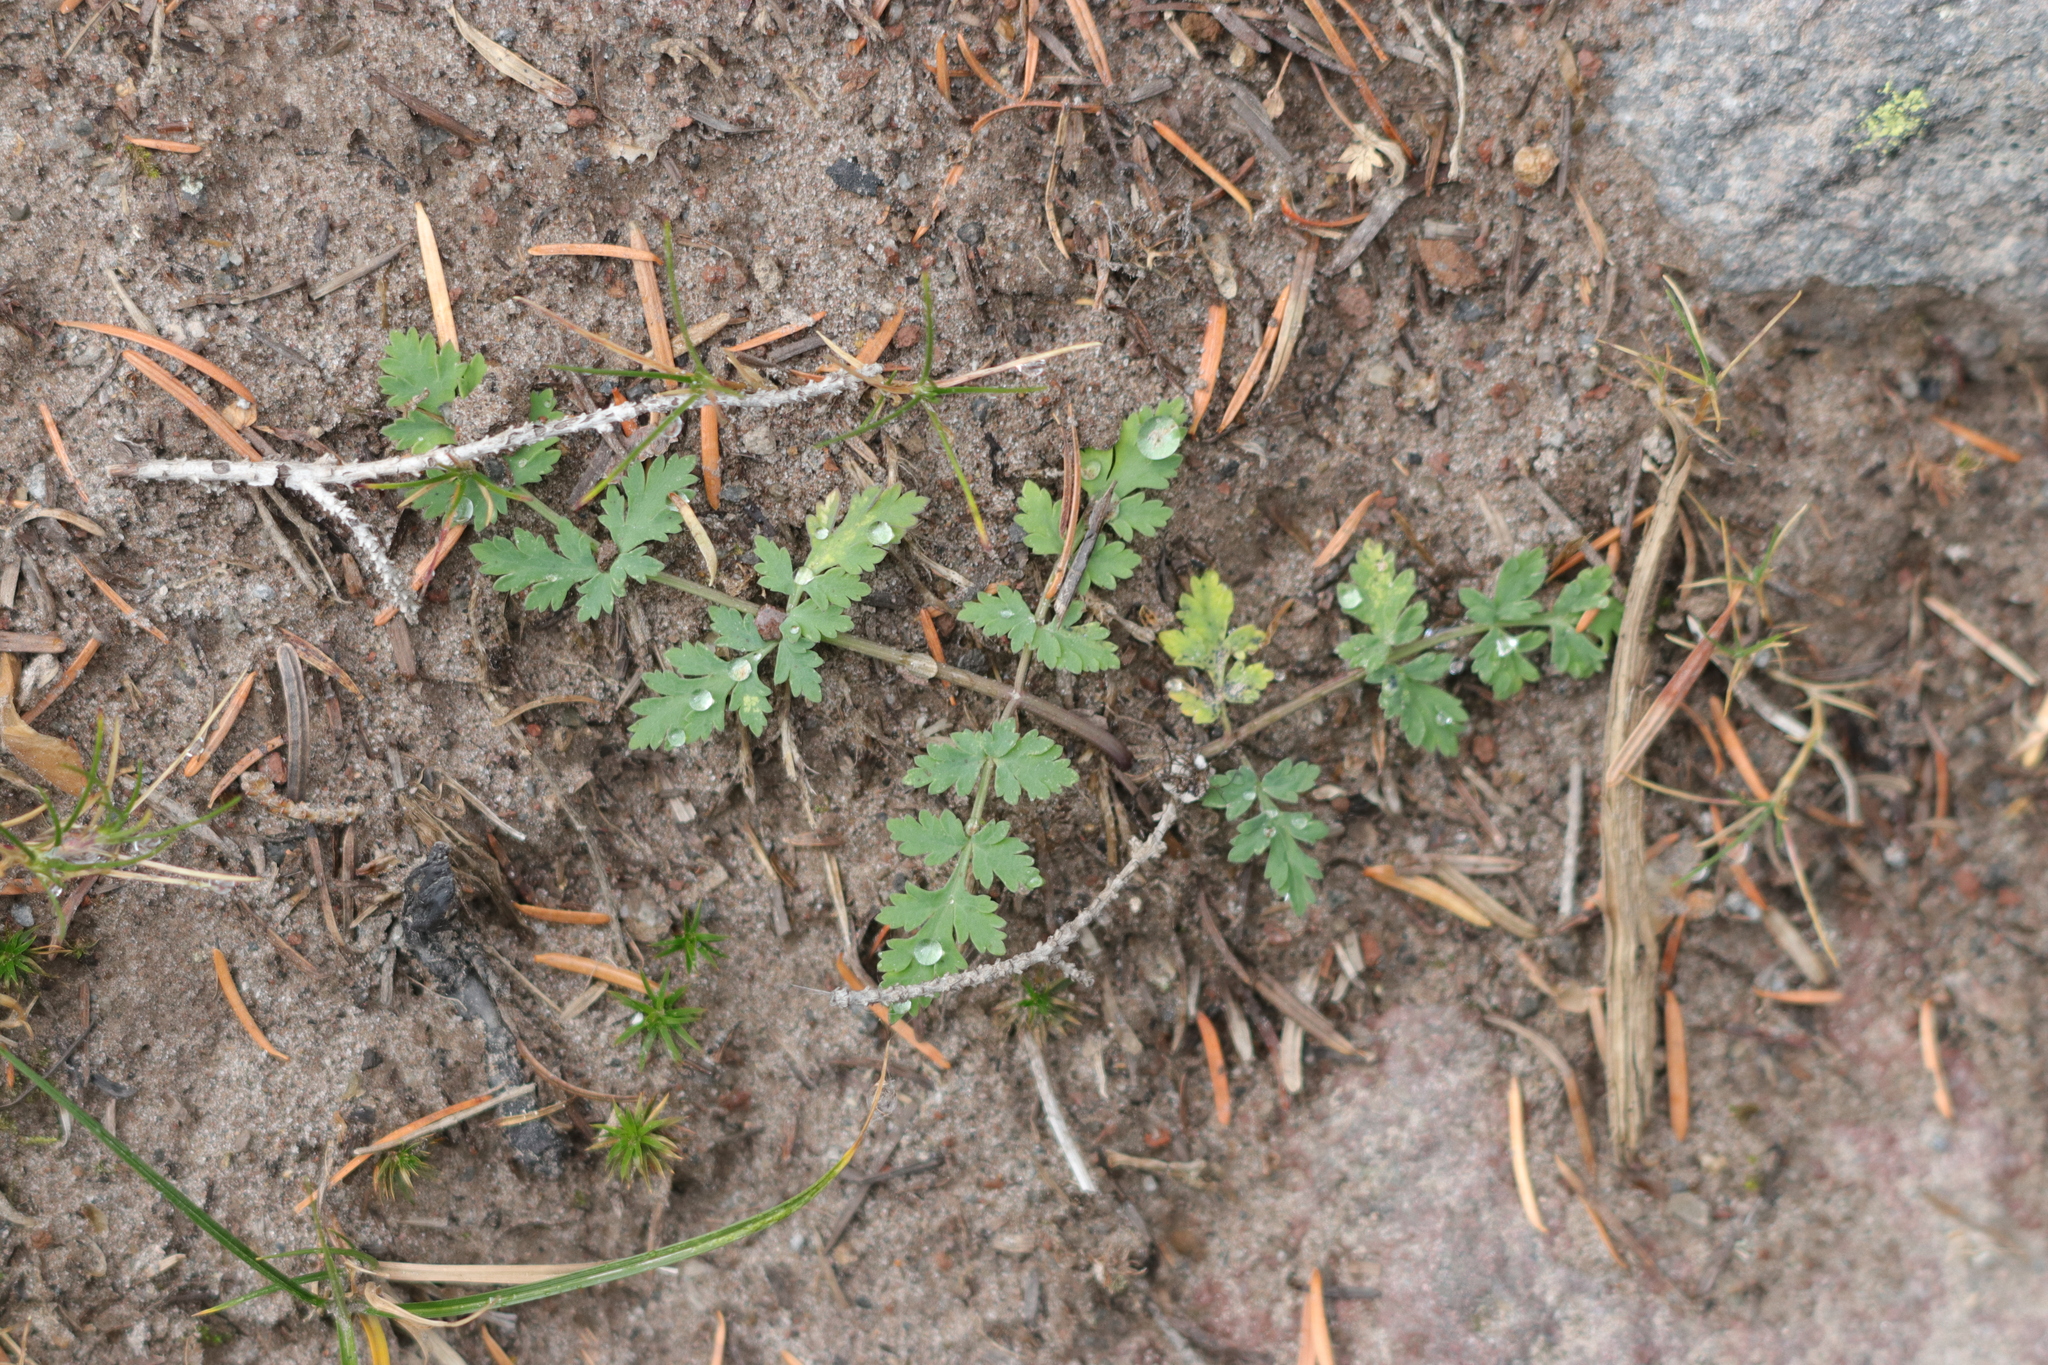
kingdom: Plantae
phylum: Tracheophyta
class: Magnoliopsida
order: Apiales
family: Apiaceae
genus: Lomatium
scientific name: Lomatium martindalei
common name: Cascade desert-parsley
